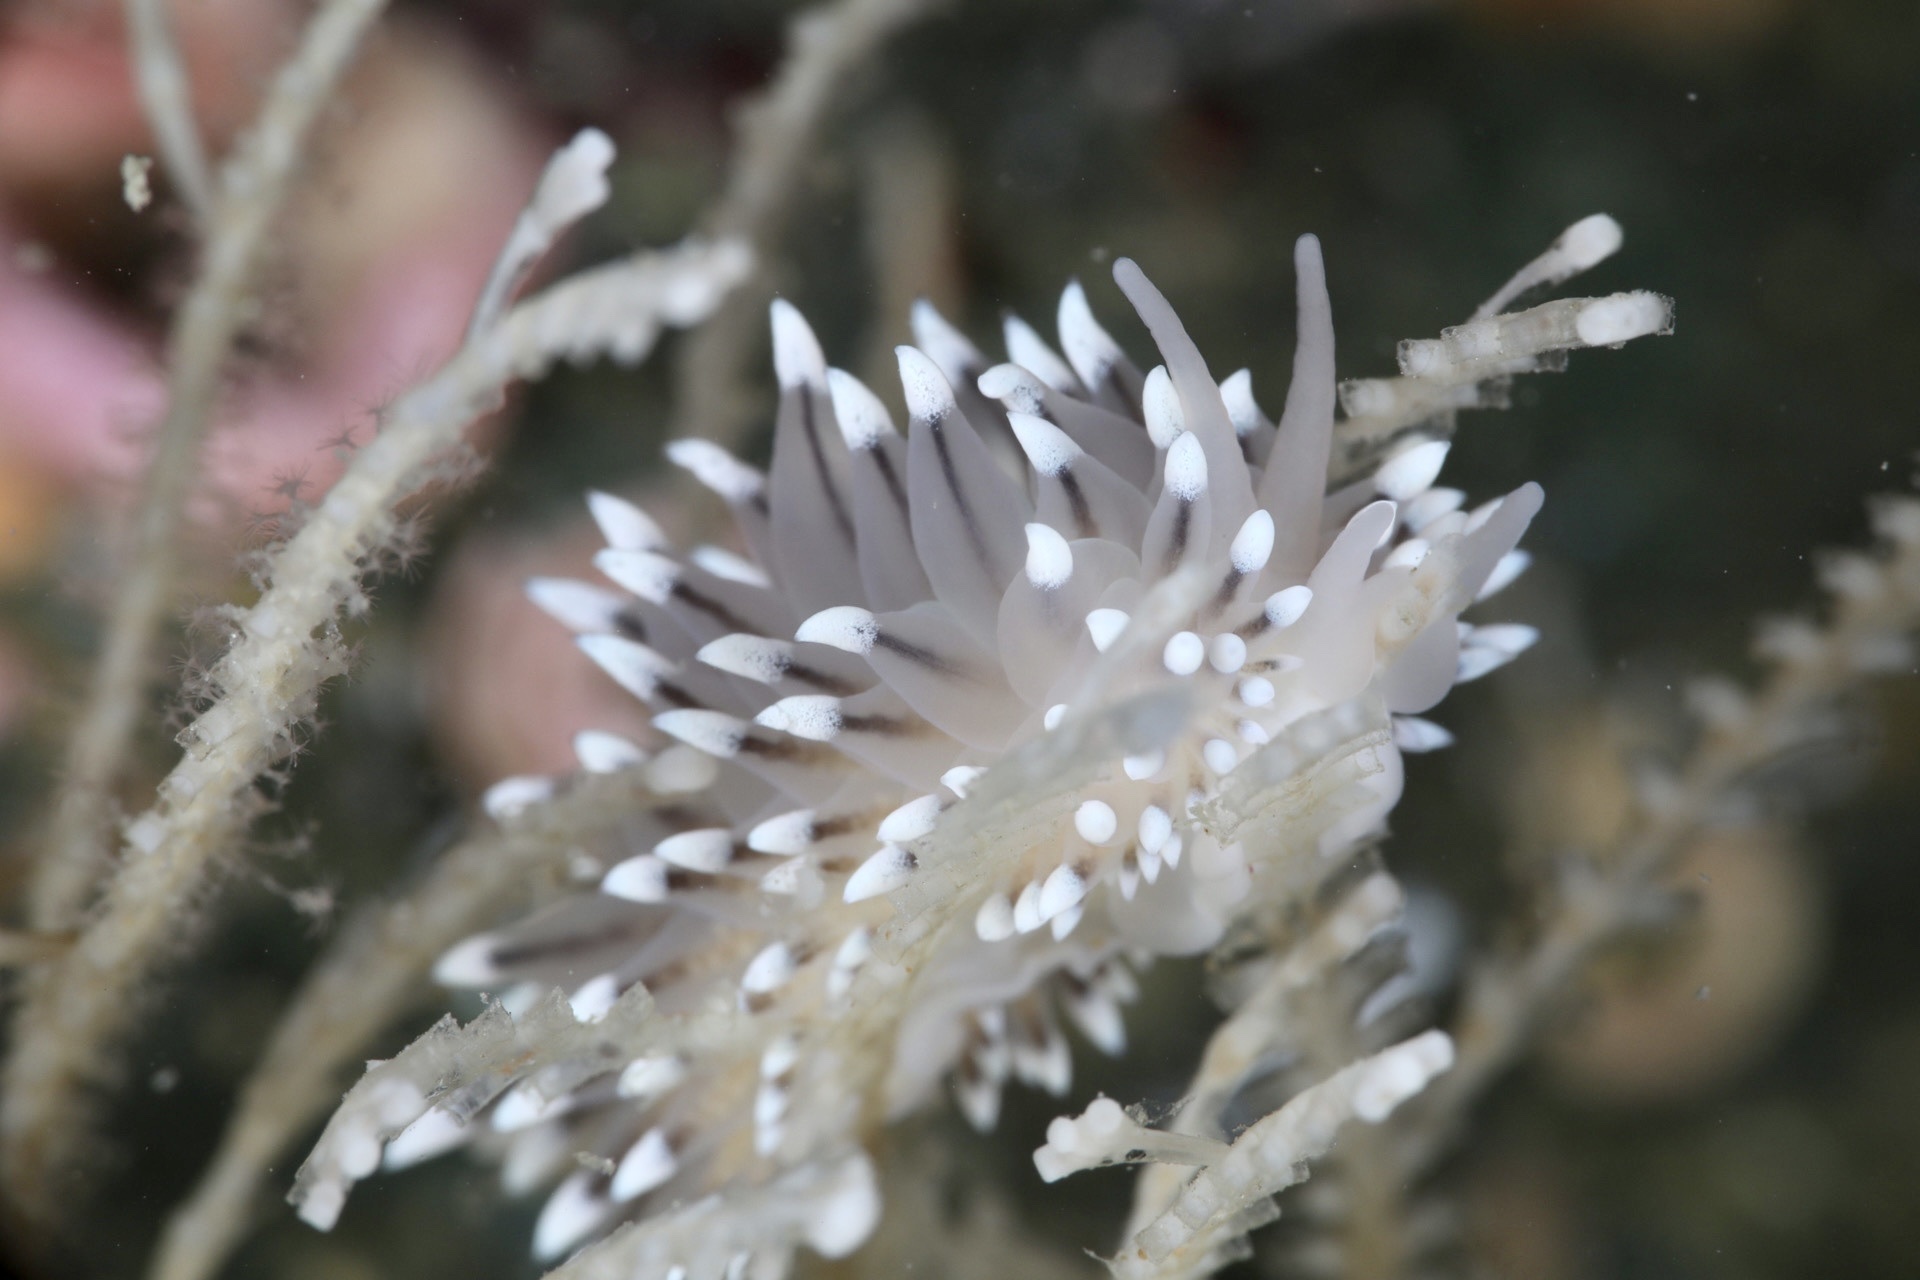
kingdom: Animalia
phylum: Mollusca
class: Gastropoda
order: Nudibranchia
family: Eubranchidae
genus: Eubranchus
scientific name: Eubranchus tricolor
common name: Painted balloon aeolis
